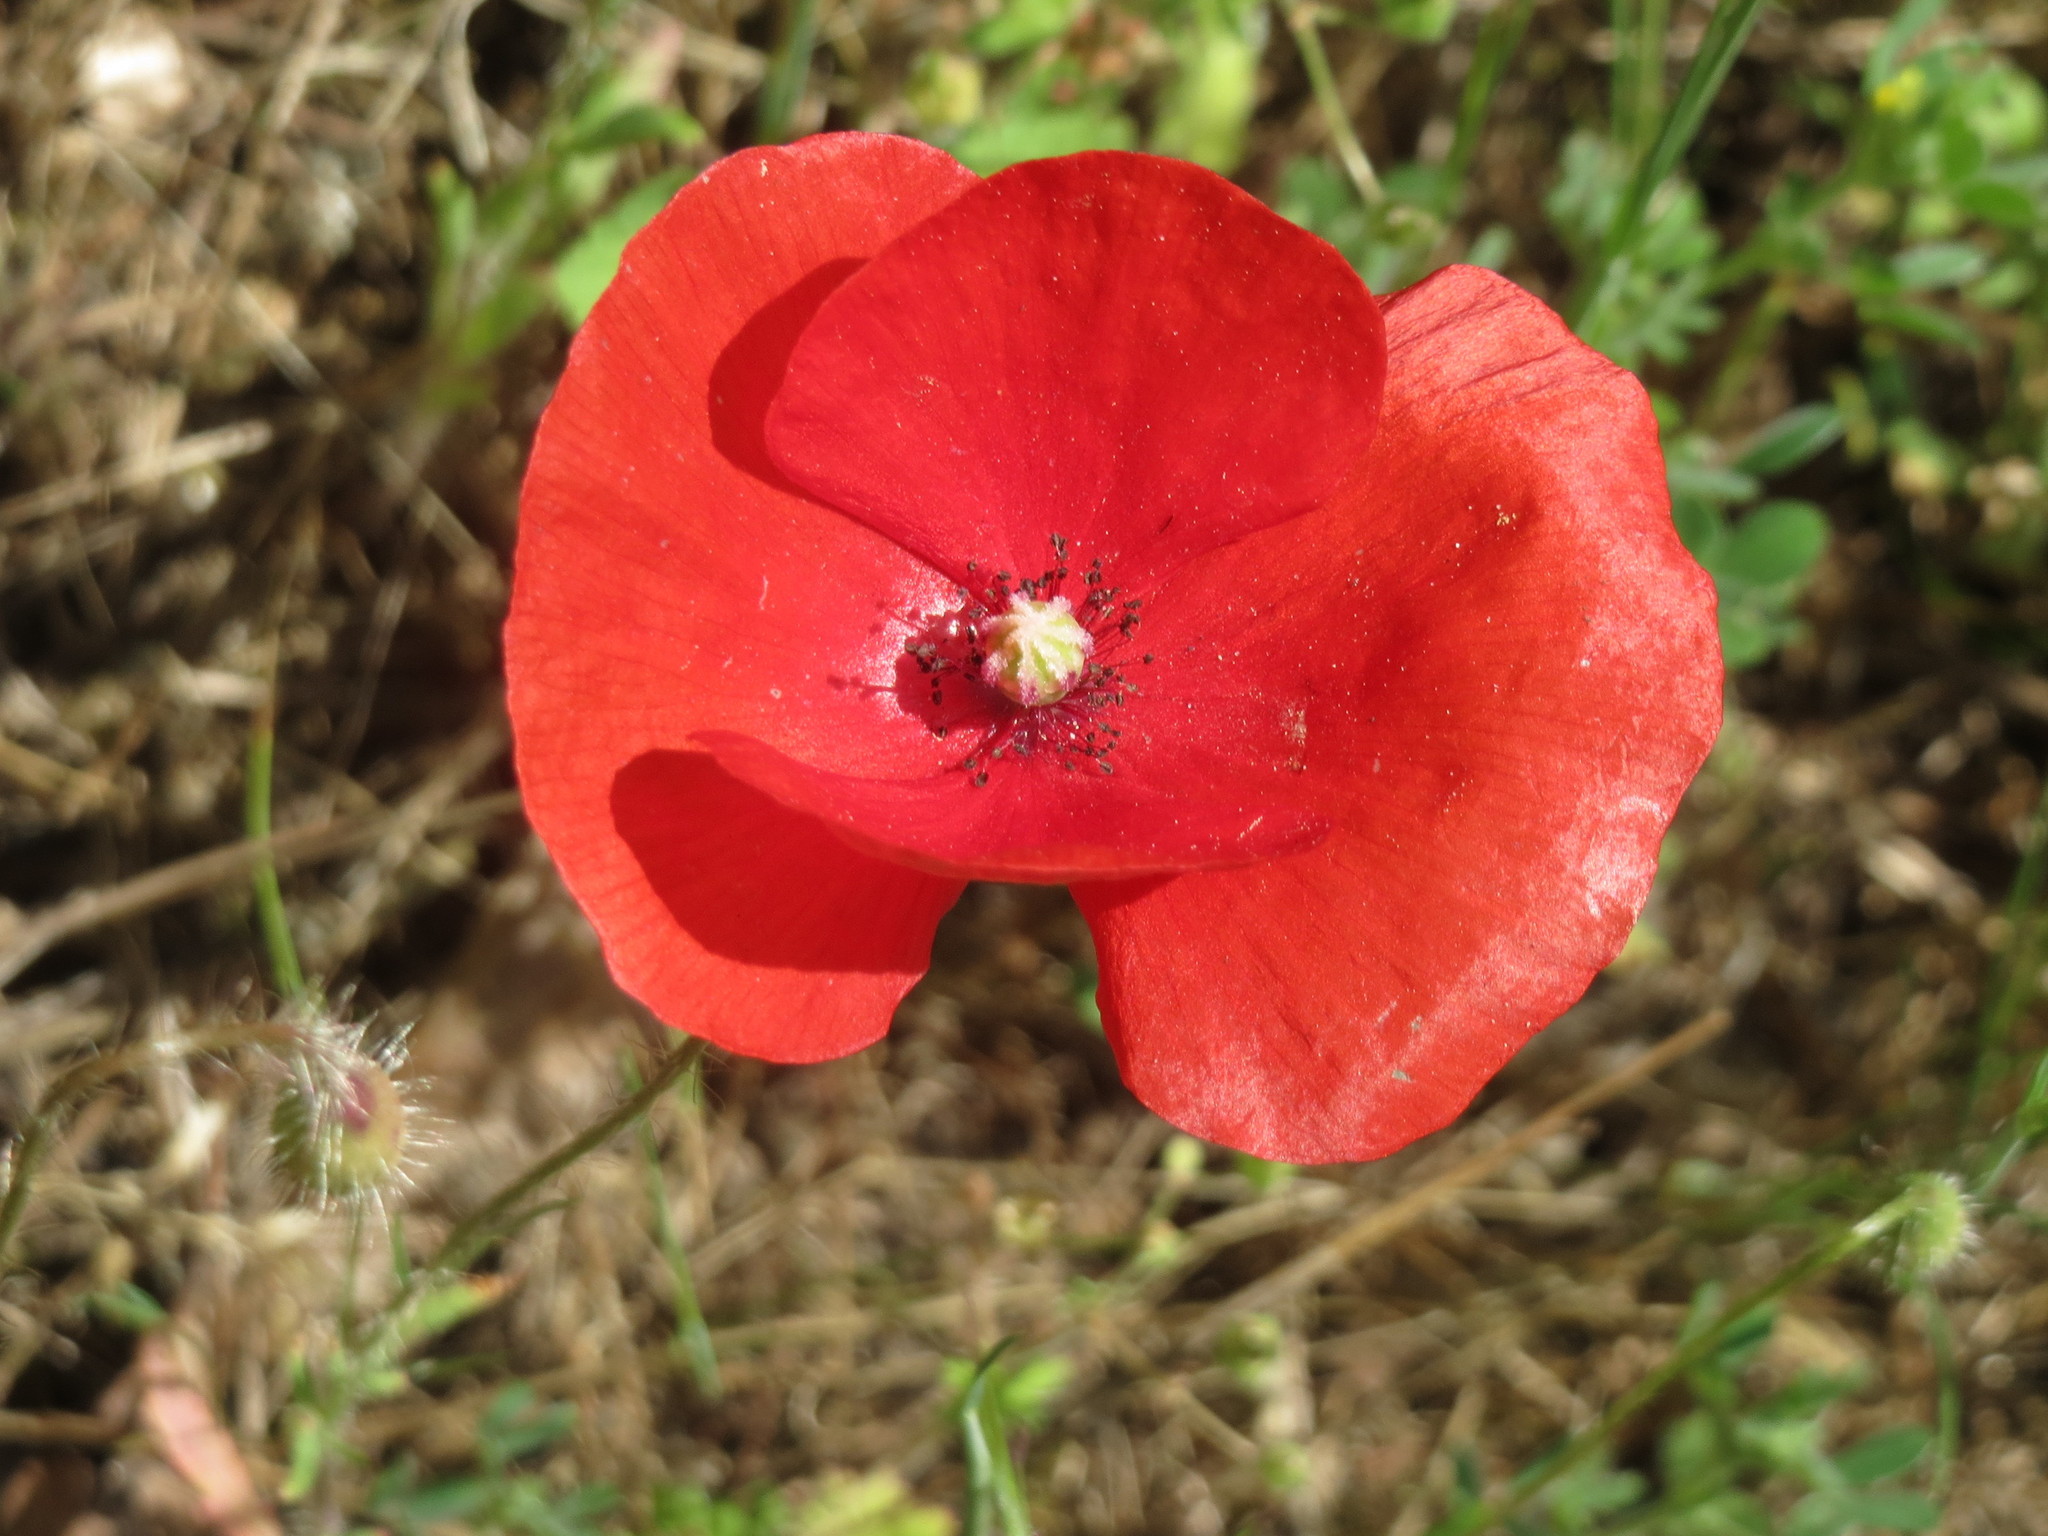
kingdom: Plantae
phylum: Tracheophyta
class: Magnoliopsida
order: Ranunculales
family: Papaveraceae
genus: Papaver
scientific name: Papaver rhoeas
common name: Corn poppy
